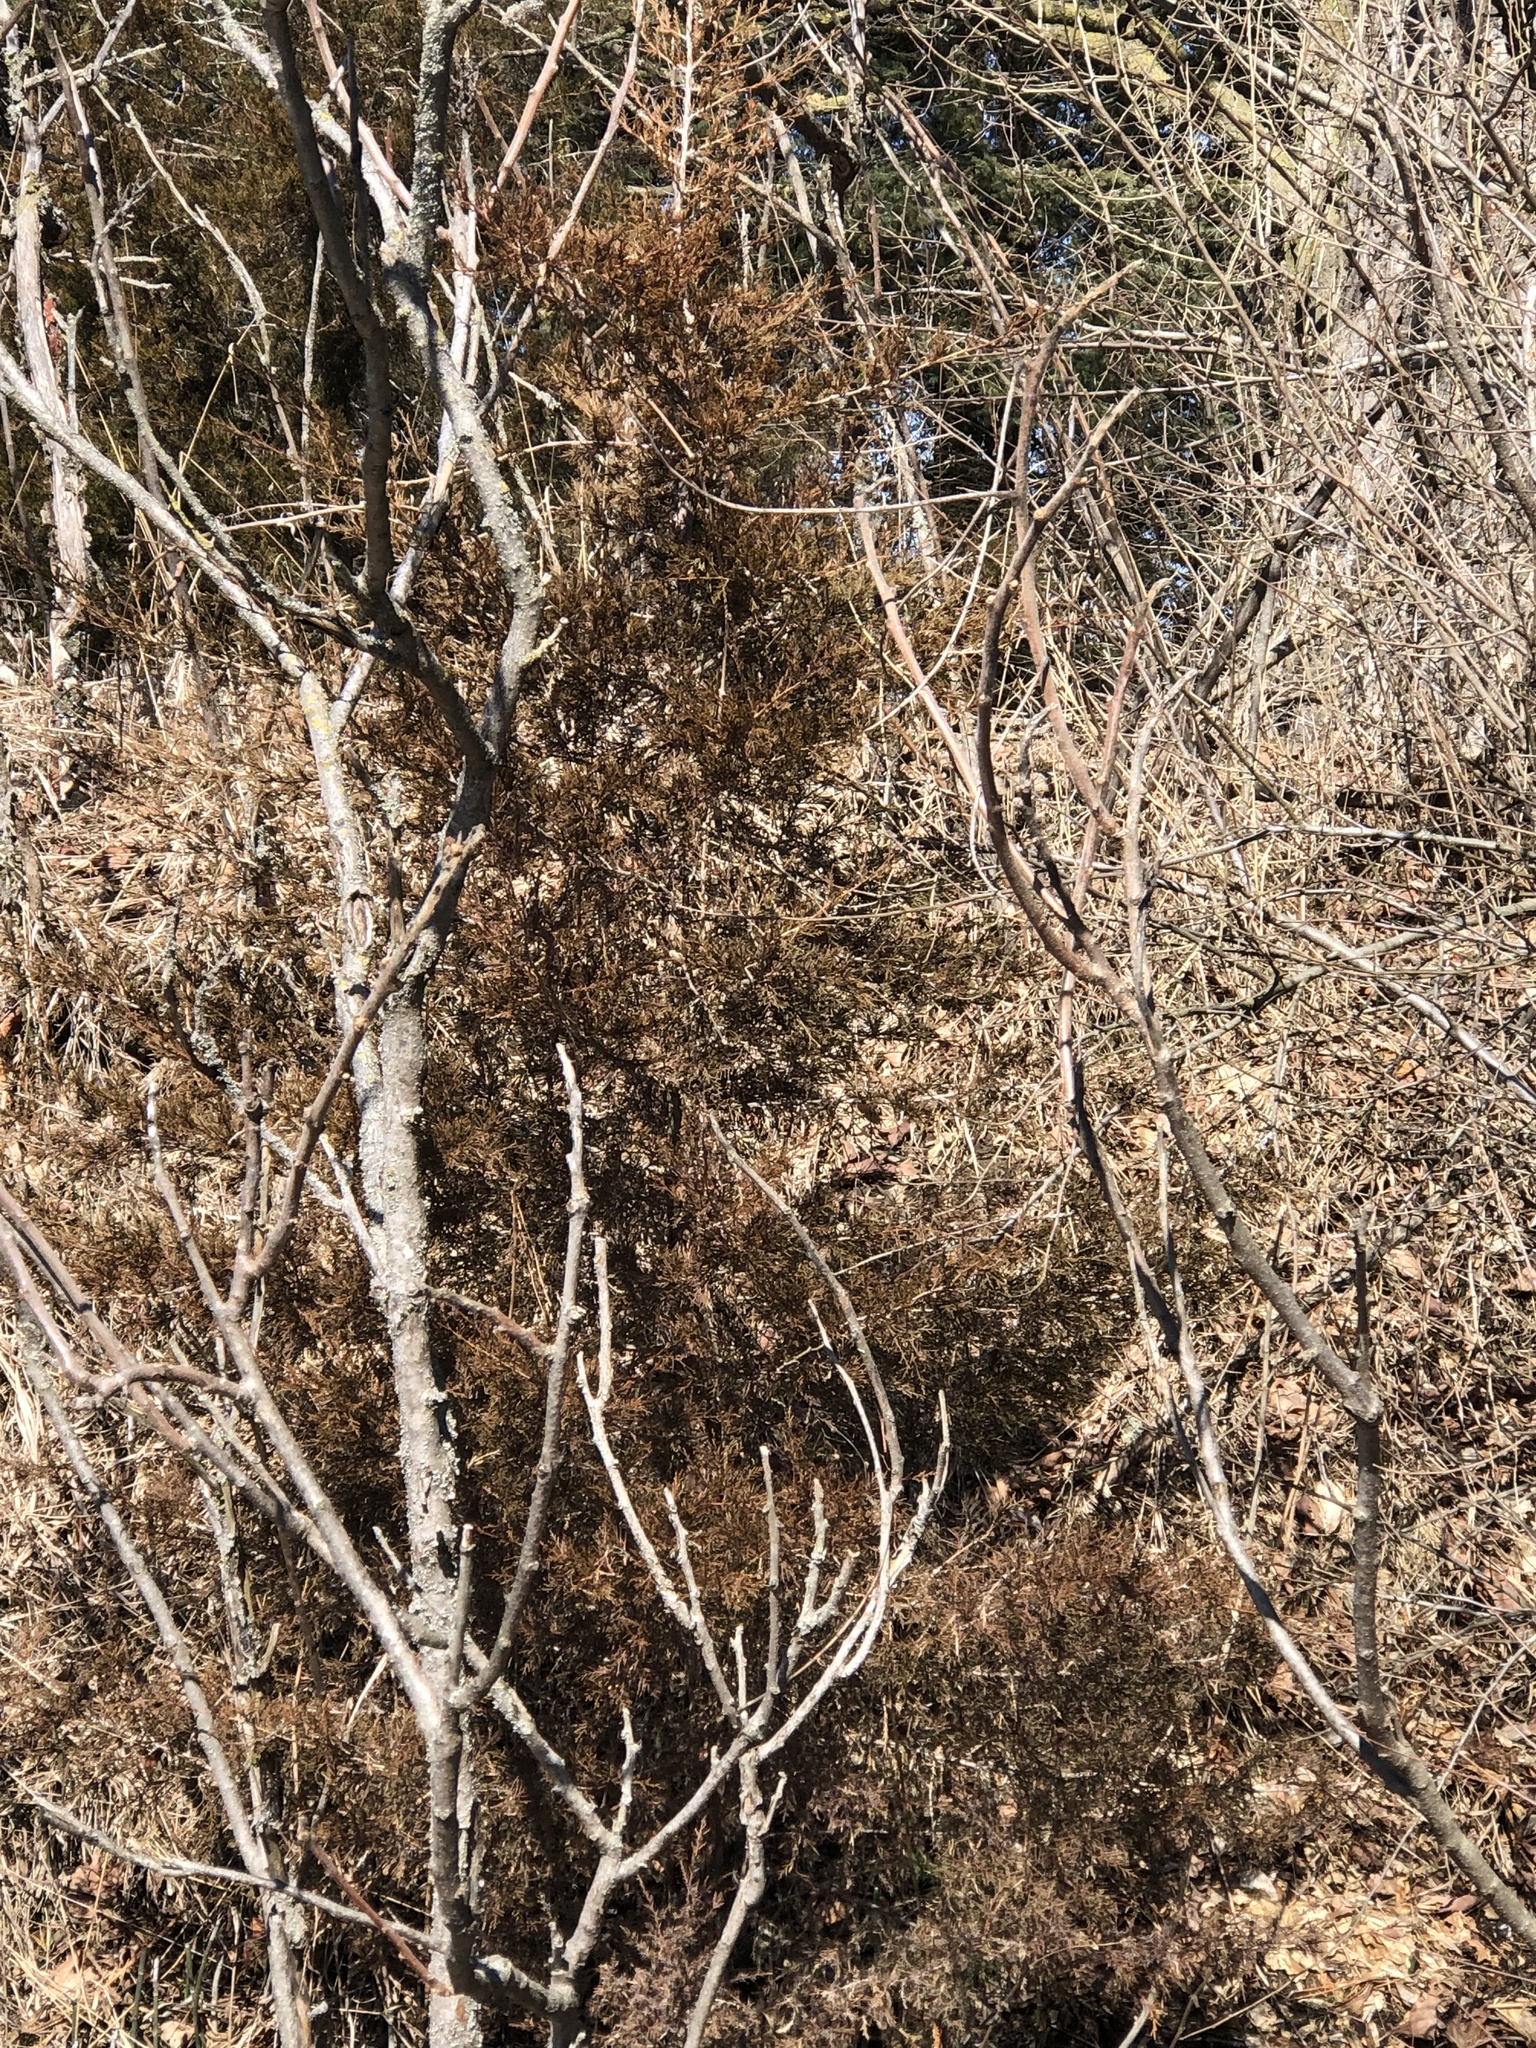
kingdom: Plantae
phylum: Tracheophyta
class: Pinopsida
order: Pinales
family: Cupressaceae
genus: Juniperus
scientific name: Juniperus virginiana
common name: Red juniper
